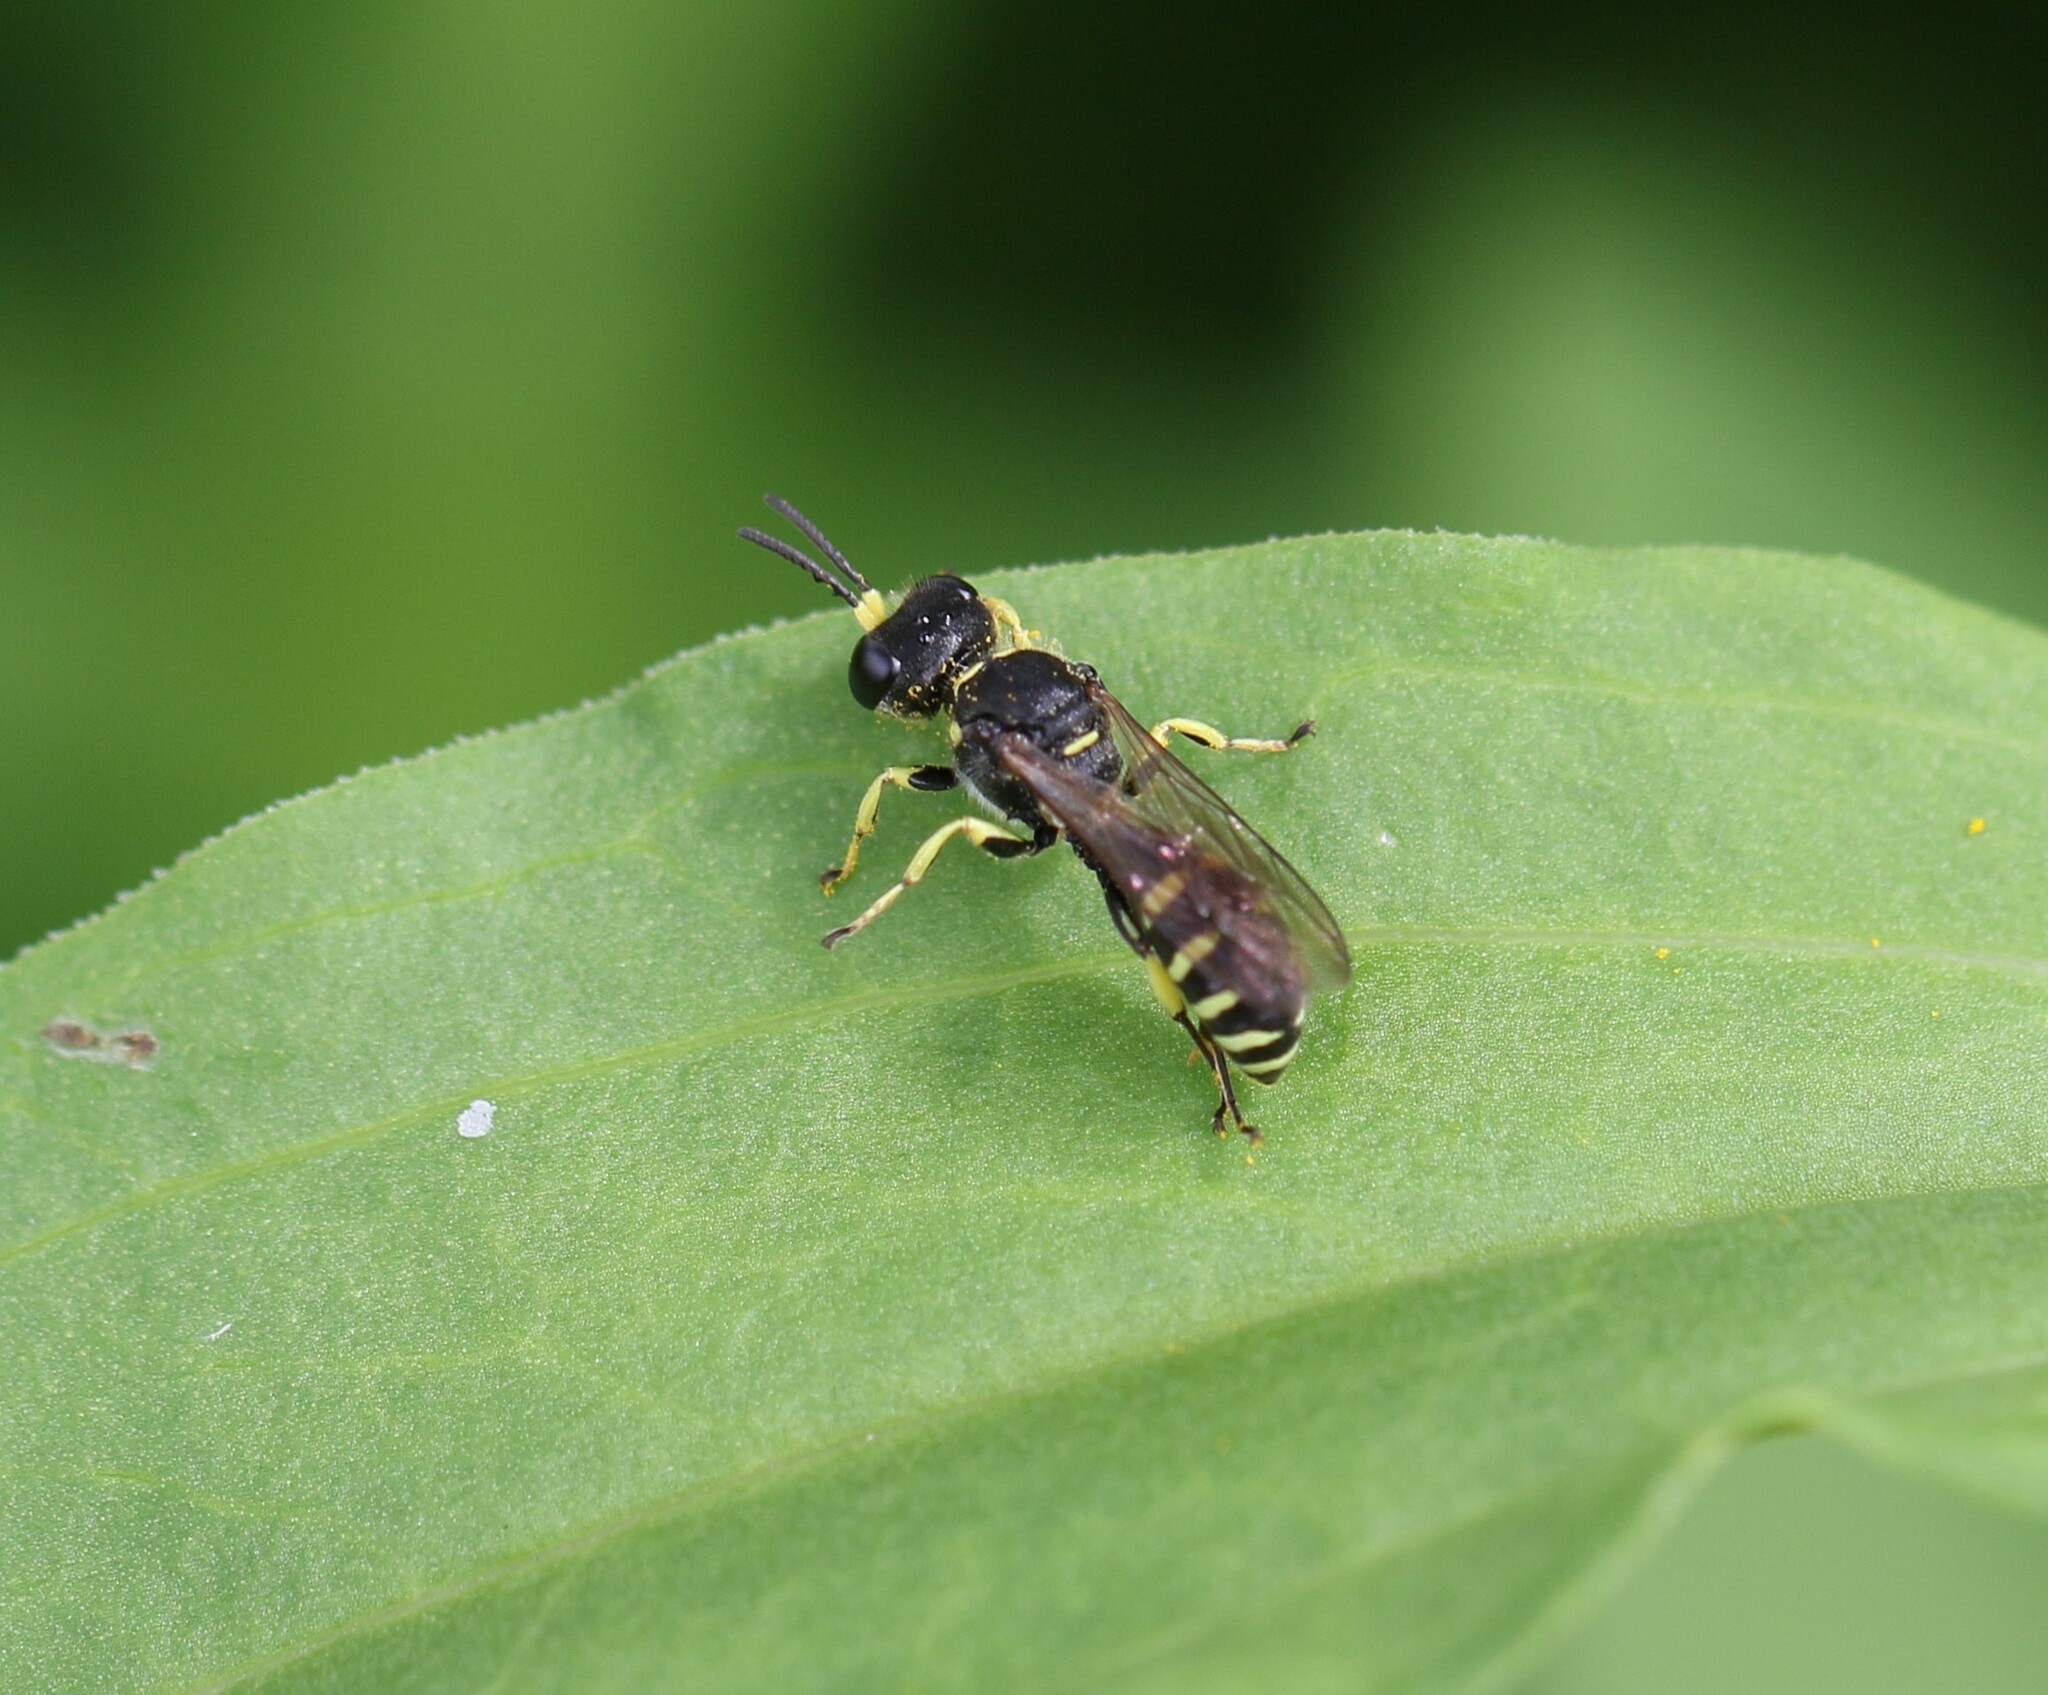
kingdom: Animalia
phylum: Arthropoda
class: Insecta
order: Hymenoptera
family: Crabronidae
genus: Ectemnius
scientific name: Ectemnius lapidarius
